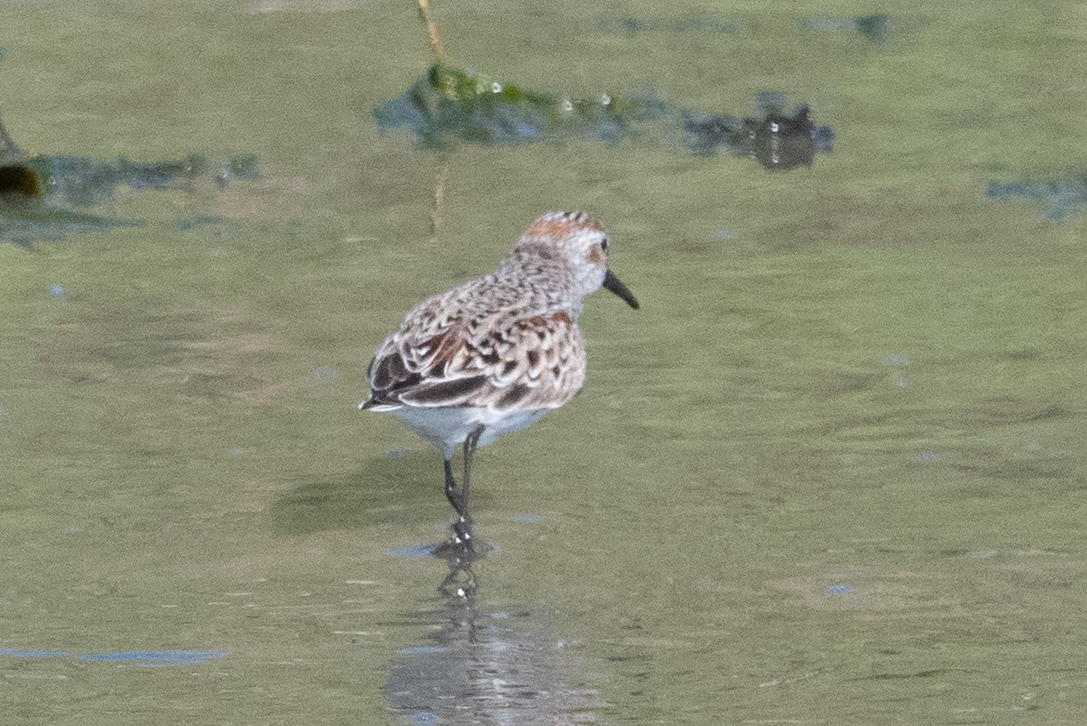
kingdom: Animalia
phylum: Chordata
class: Aves
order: Charadriiformes
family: Scolopacidae
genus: Calidris
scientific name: Calidris mauri
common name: Western sandpiper
